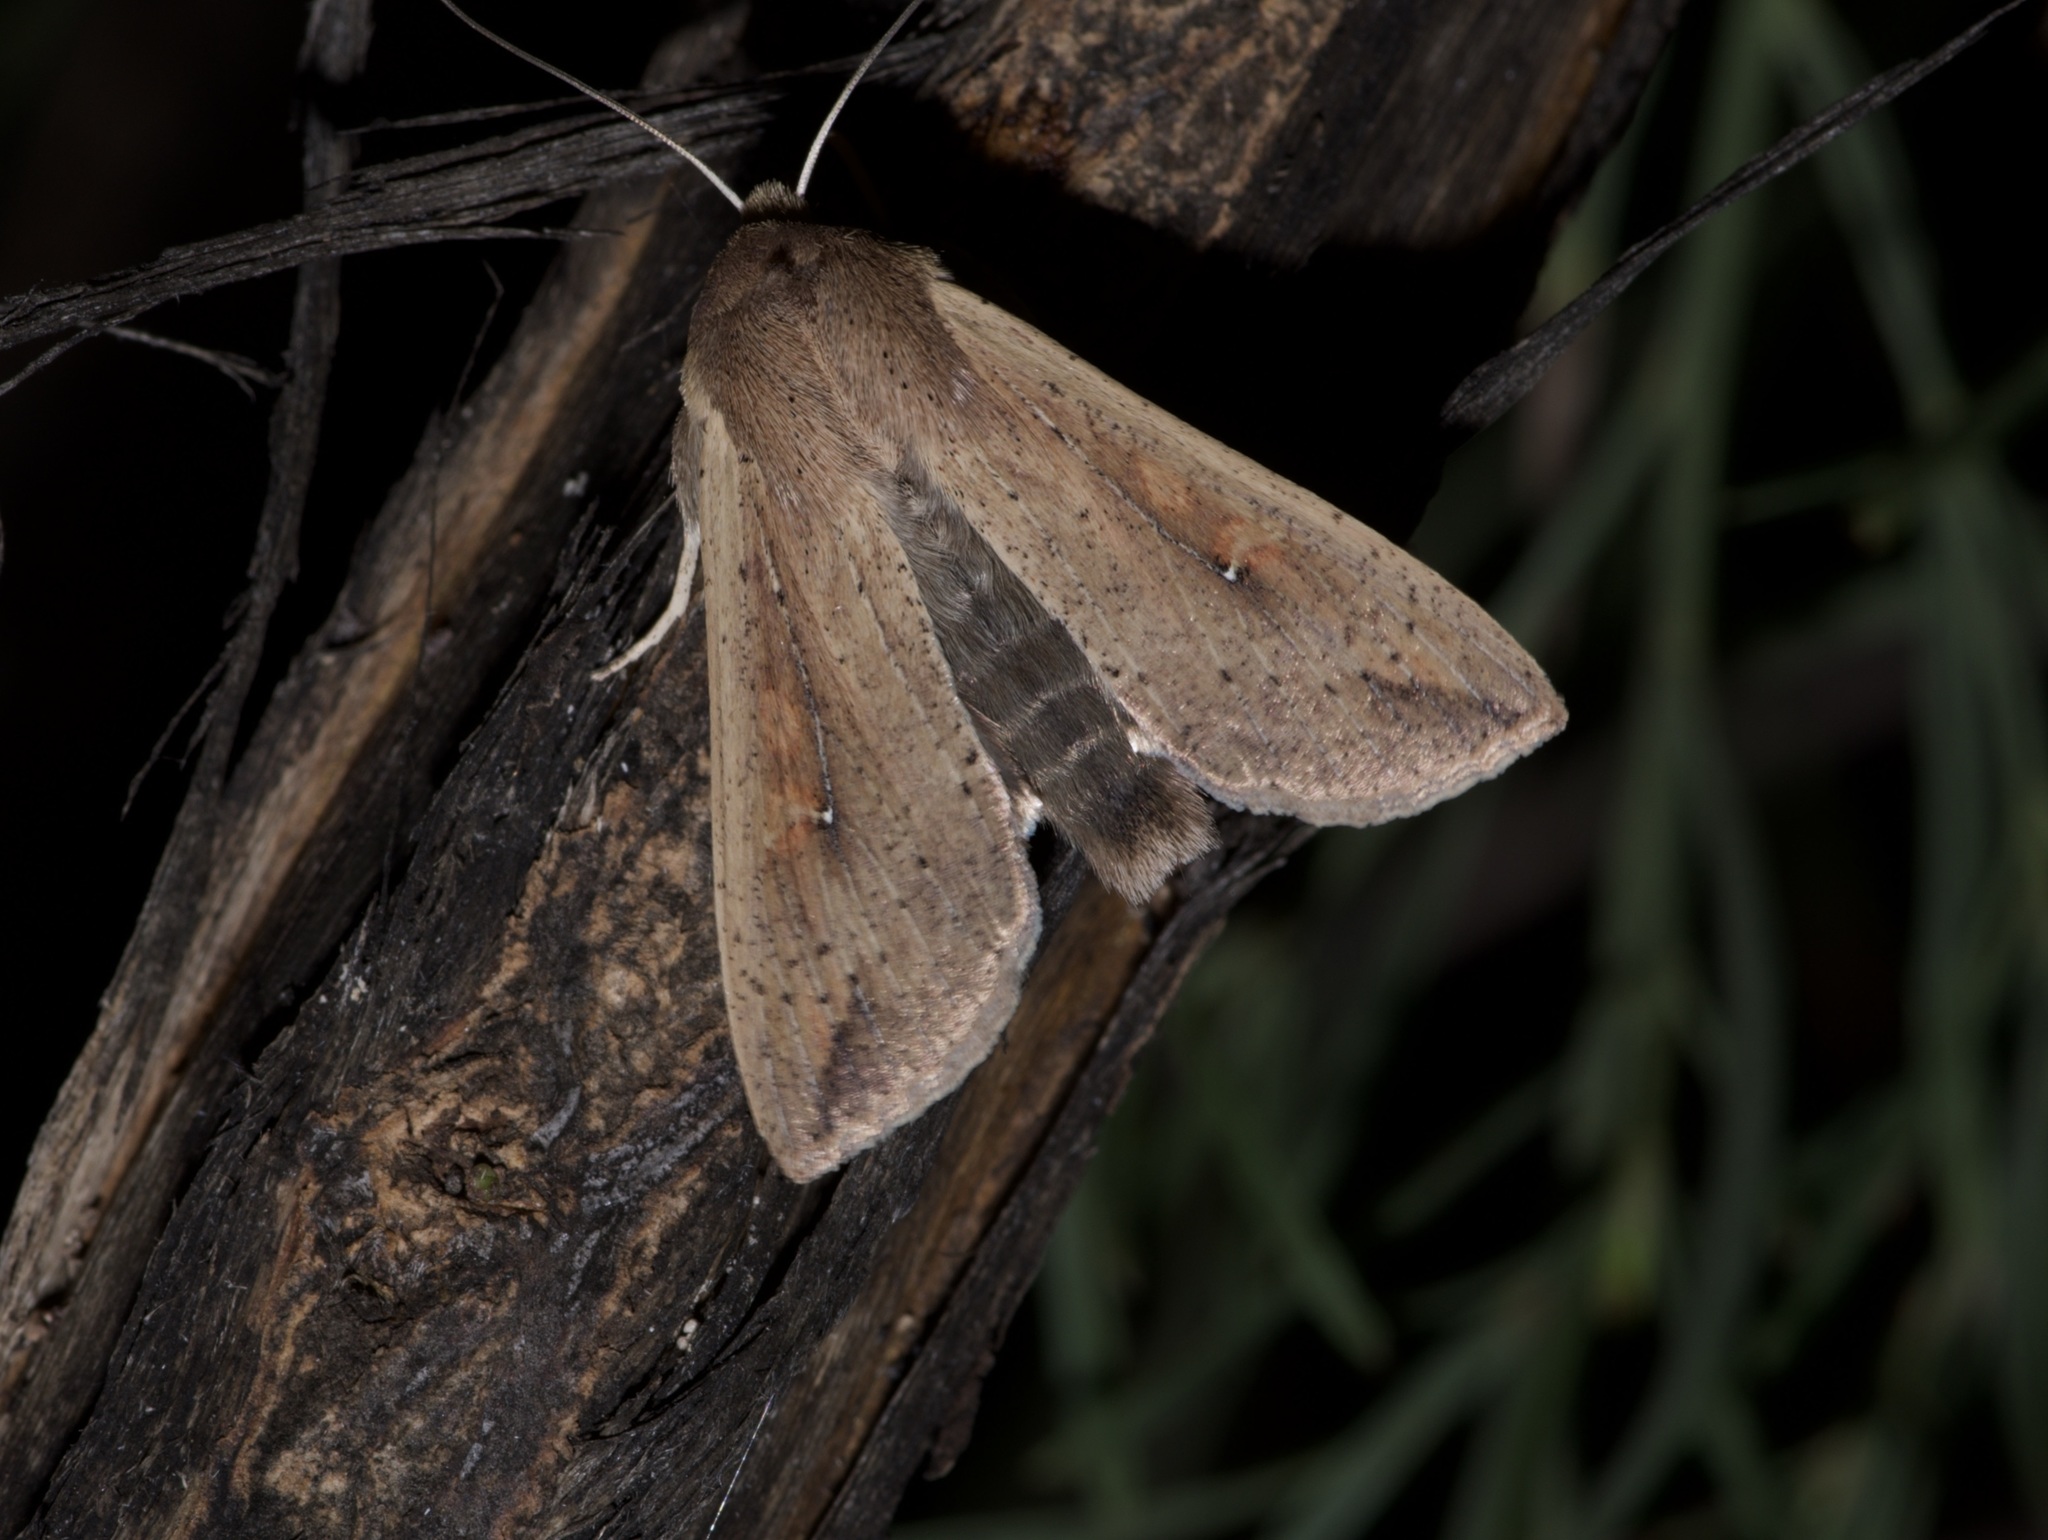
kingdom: Animalia
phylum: Arthropoda
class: Insecta
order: Lepidoptera
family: Noctuidae
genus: Mythimna
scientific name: Mythimna unipuncta
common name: White-speck
